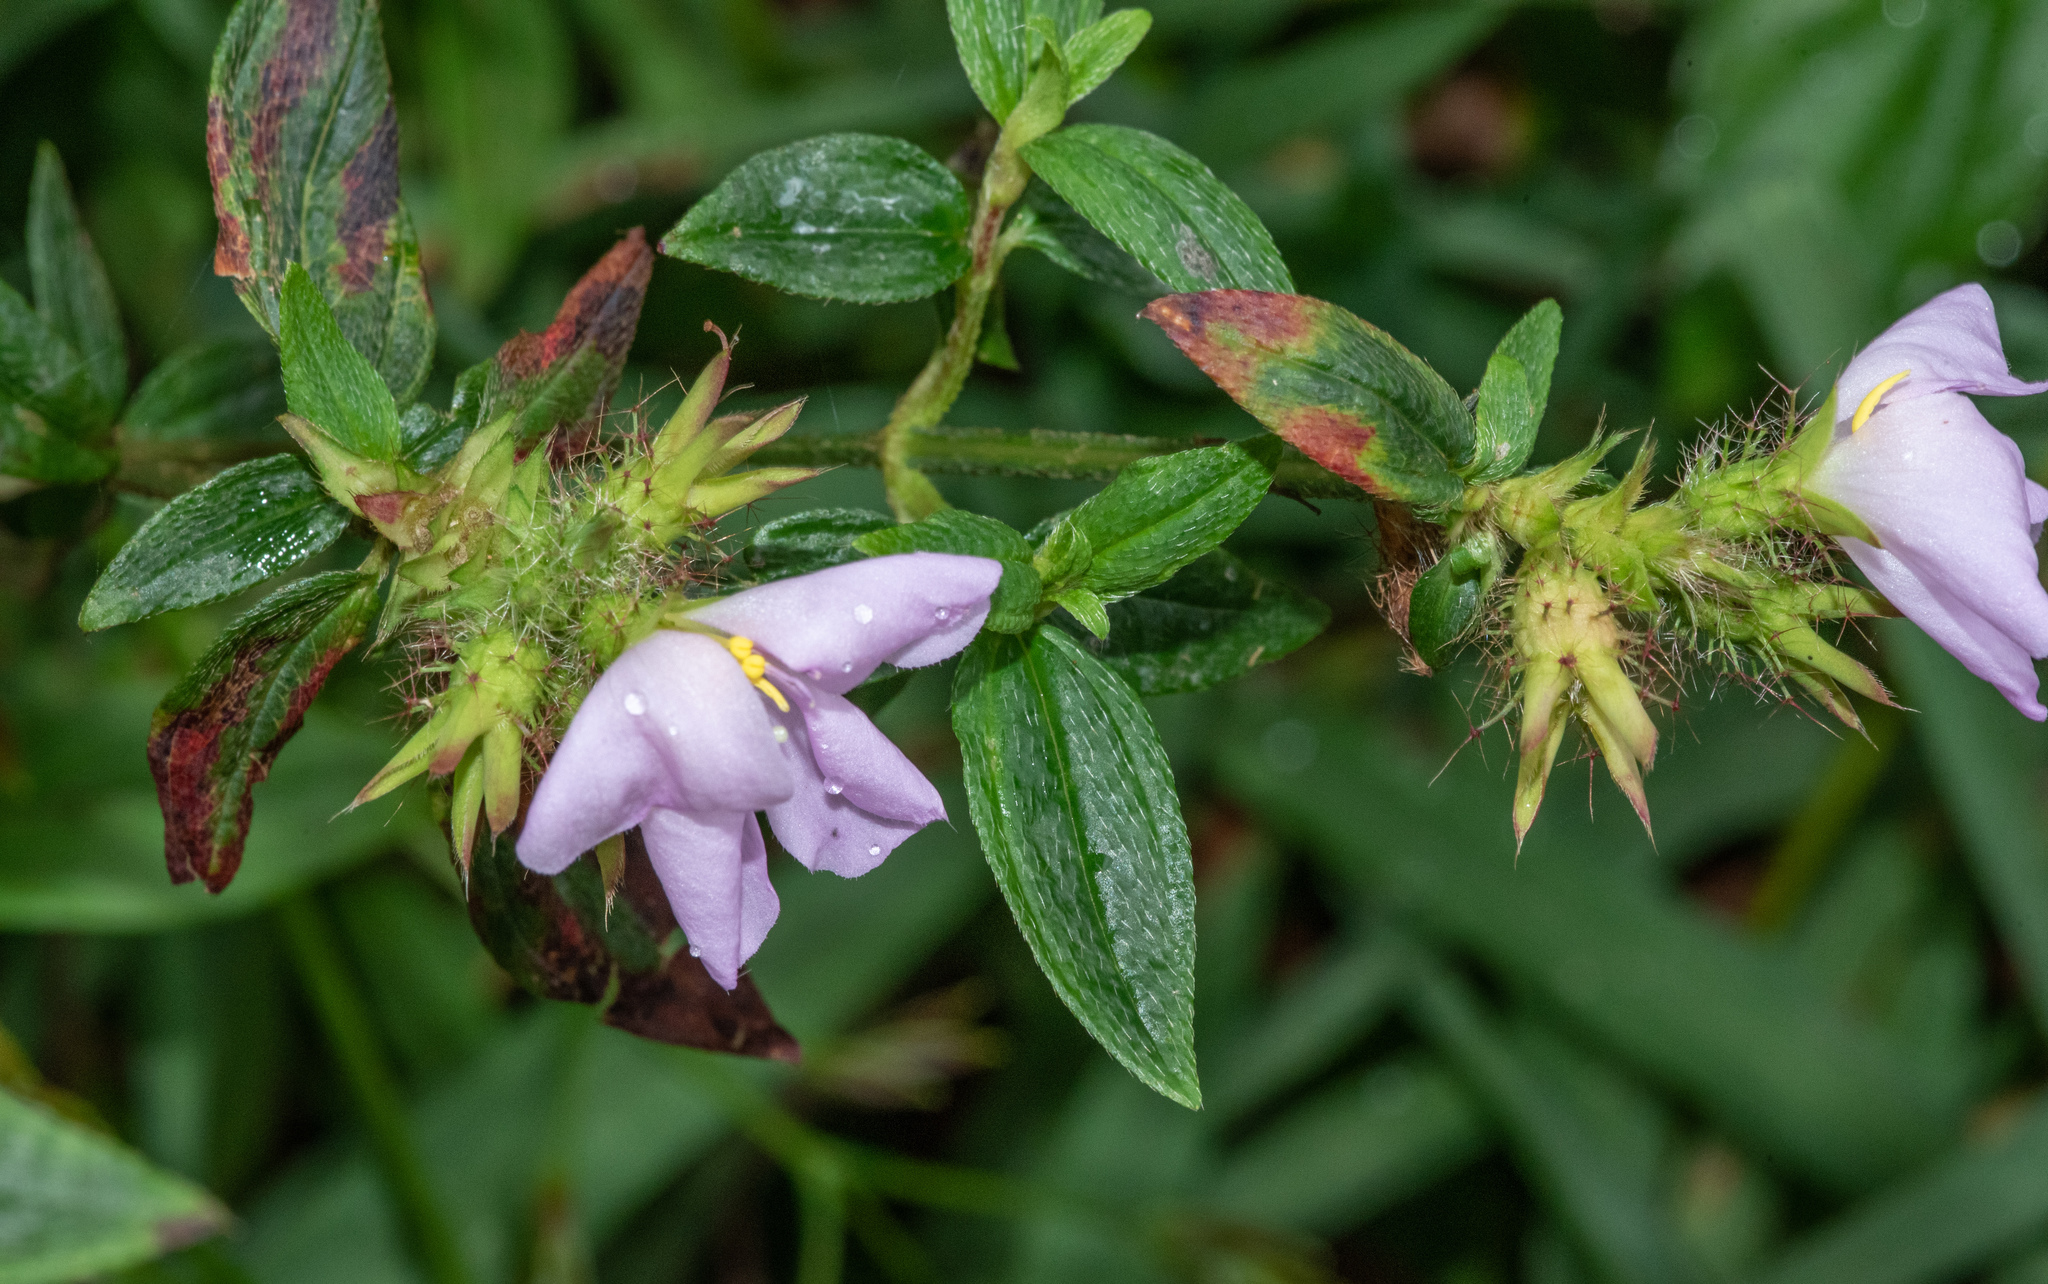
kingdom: Plantae
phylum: Tracheophyta
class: Magnoliopsida
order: Myrtales
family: Melastomataceae
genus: Pterolepis
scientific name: Pterolepis glomerata
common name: False meadowbeauty
